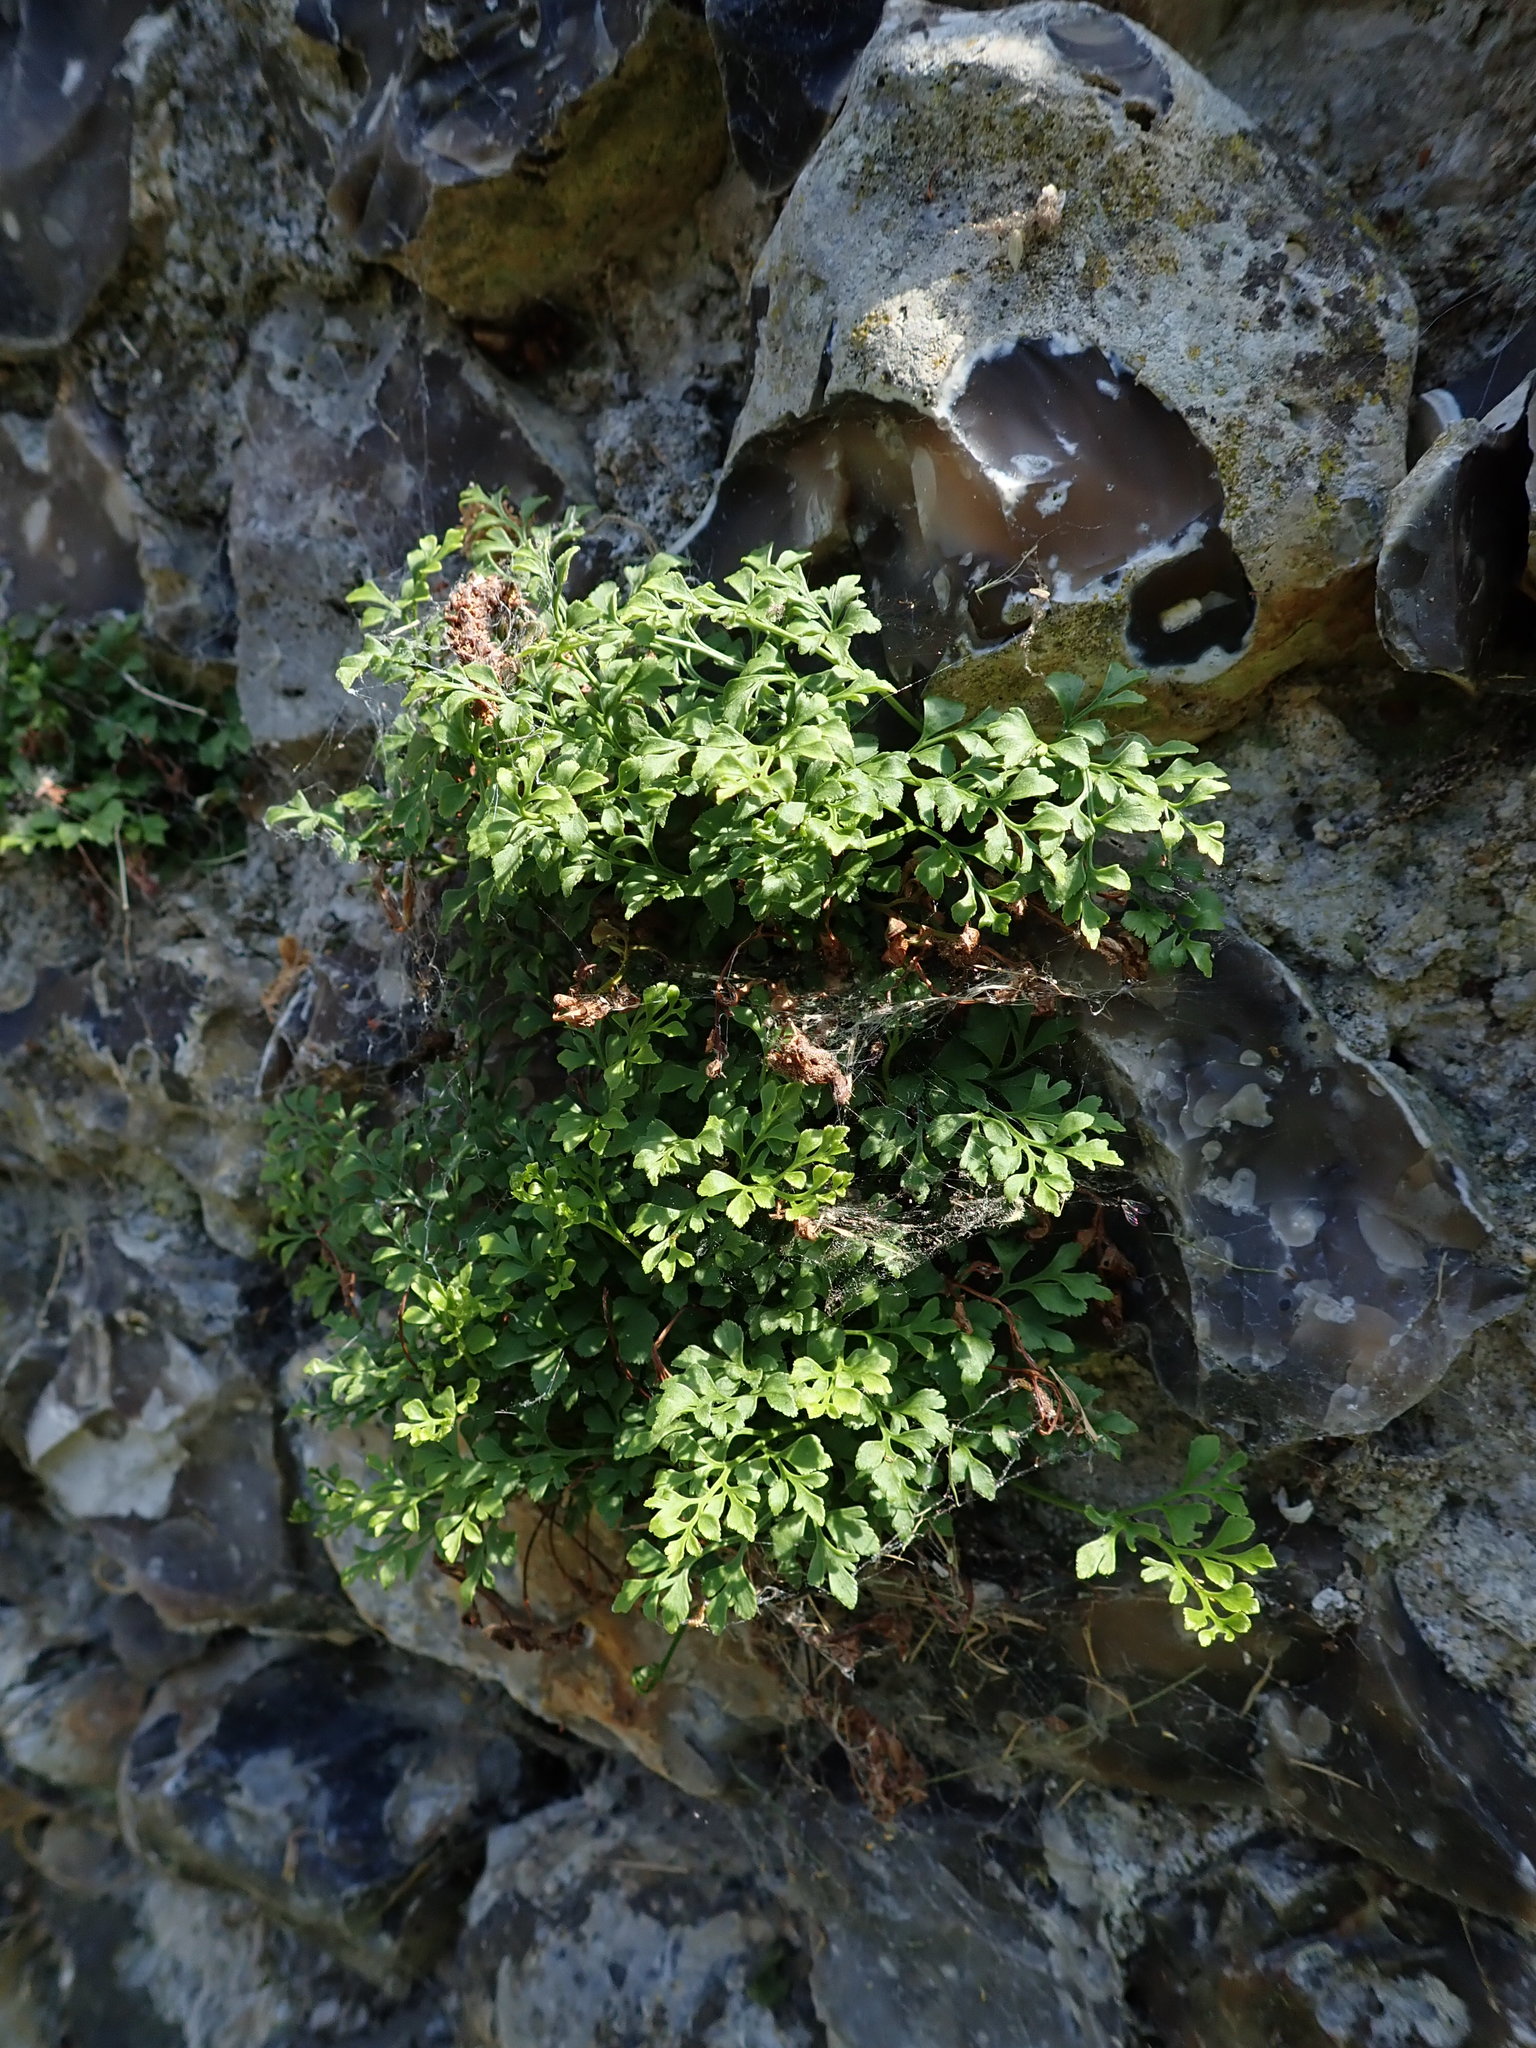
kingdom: Plantae
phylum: Tracheophyta
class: Polypodiopsida
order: Polypodiales
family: Aspleniaceae
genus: Asplenium
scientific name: Asplenium ruta-muraria
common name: Wall-rue
